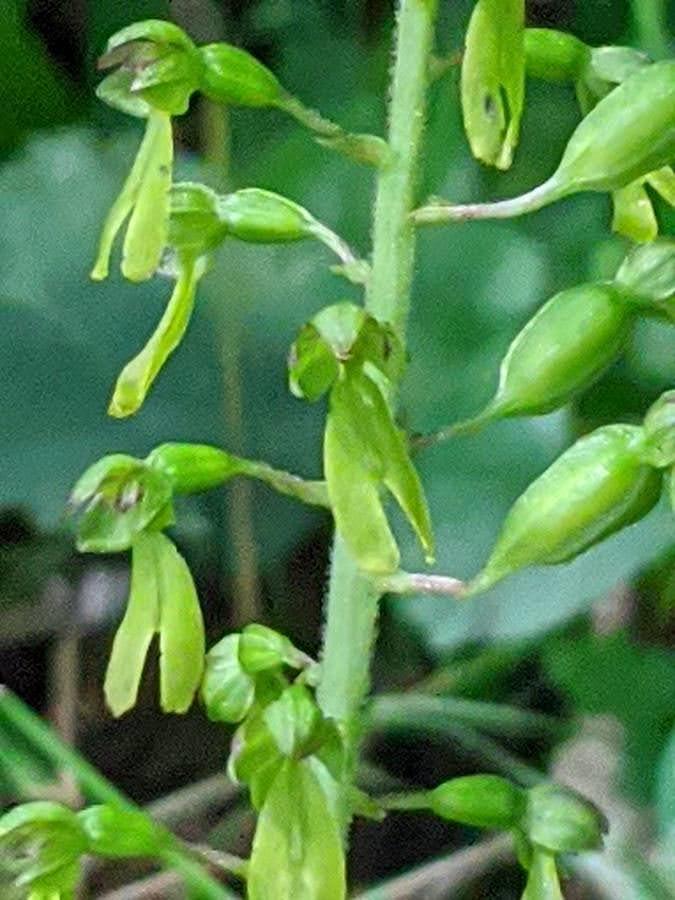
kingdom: Plantae
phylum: Tracheophyta
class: Liliopsida
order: Asparagales
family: Orchidaceae
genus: Neottia
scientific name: Neottia ovata
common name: Common twayblade
